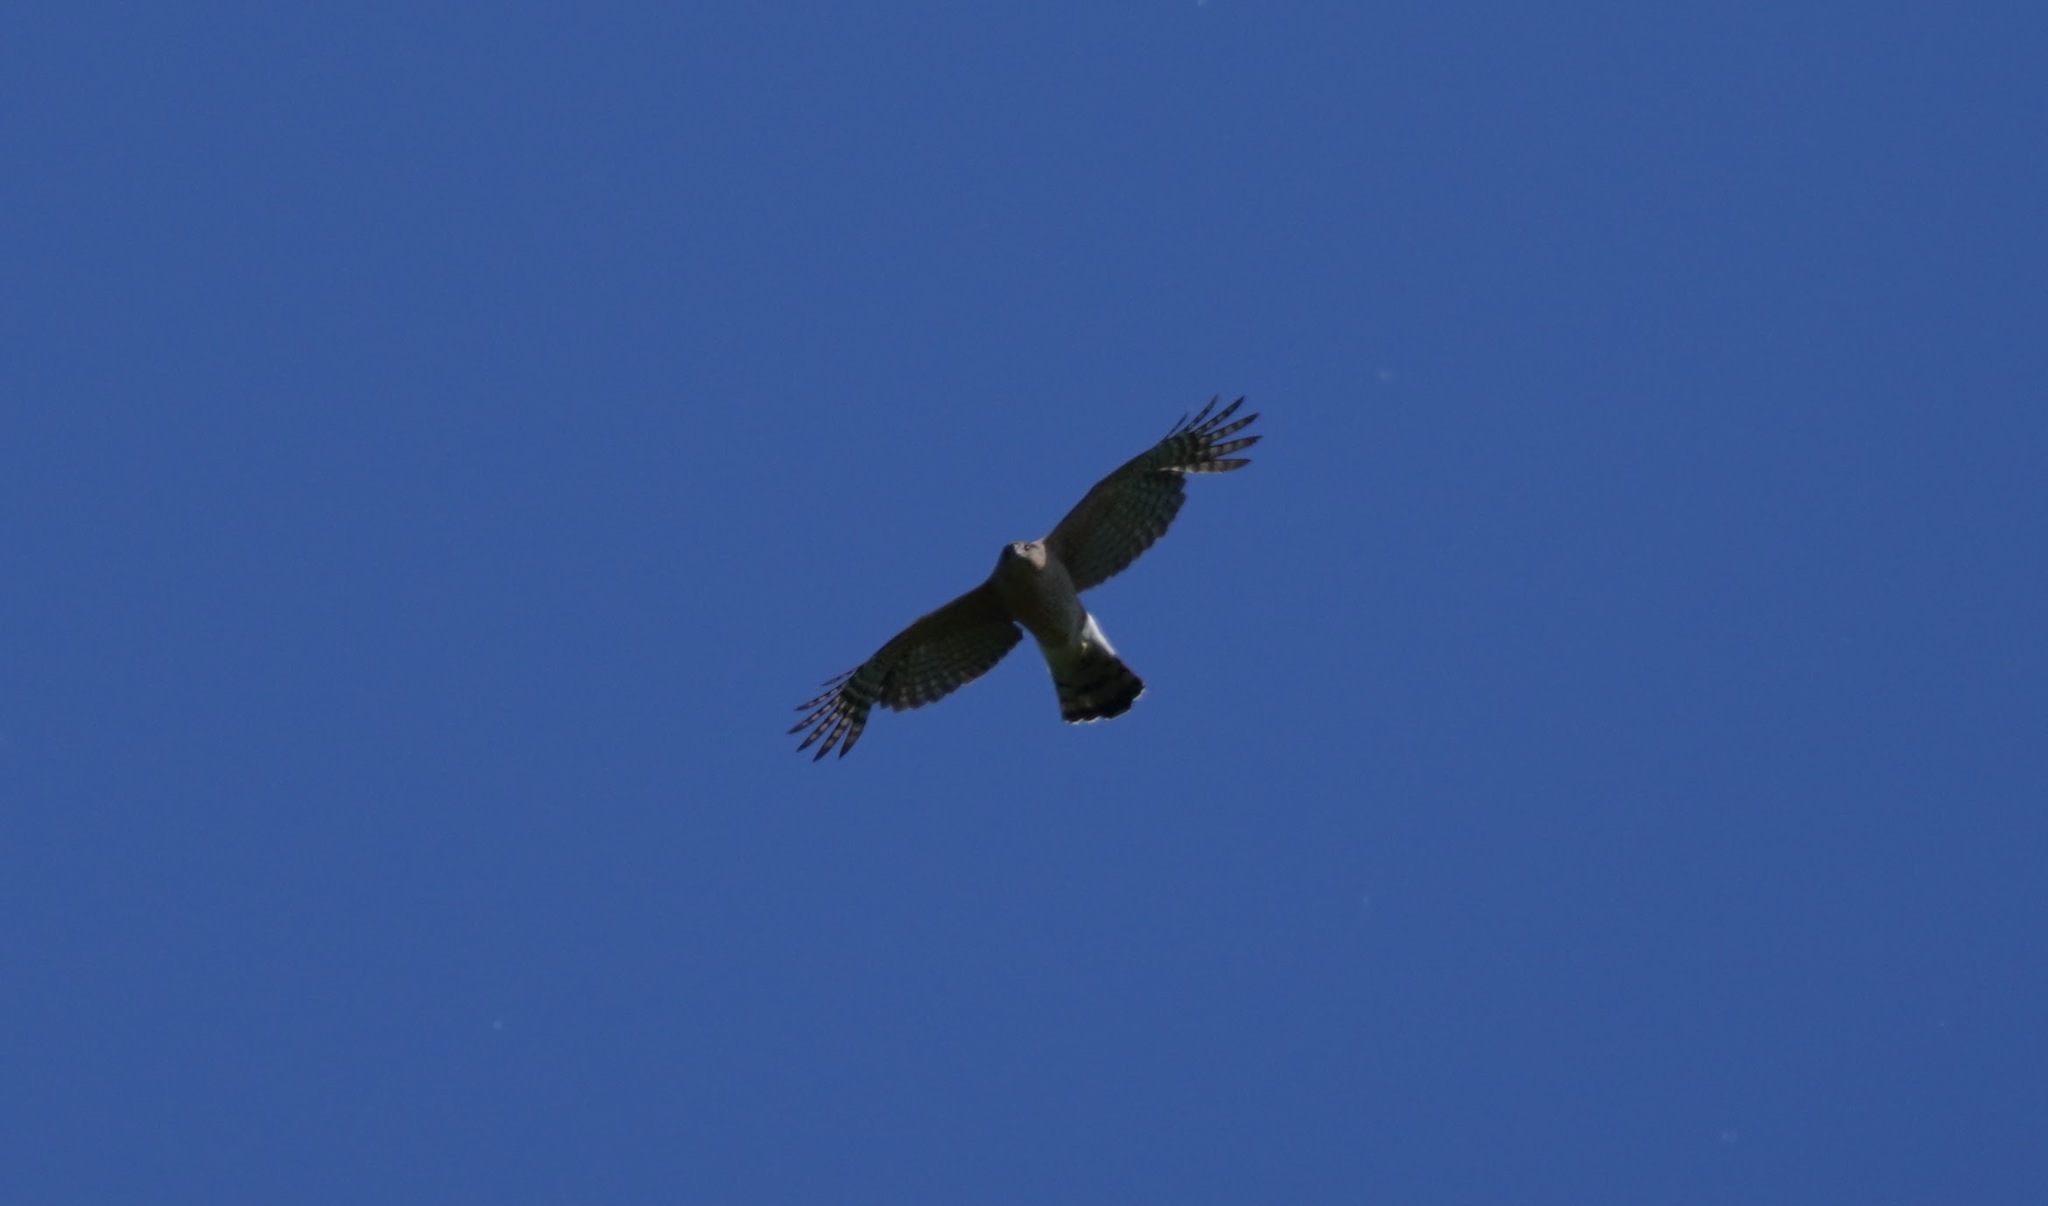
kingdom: Animalia
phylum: Chordata
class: Aves
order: Accipitriformes
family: Accipitridae
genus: Accipiter
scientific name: Accipiter cooperii
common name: Cooper's hawk
